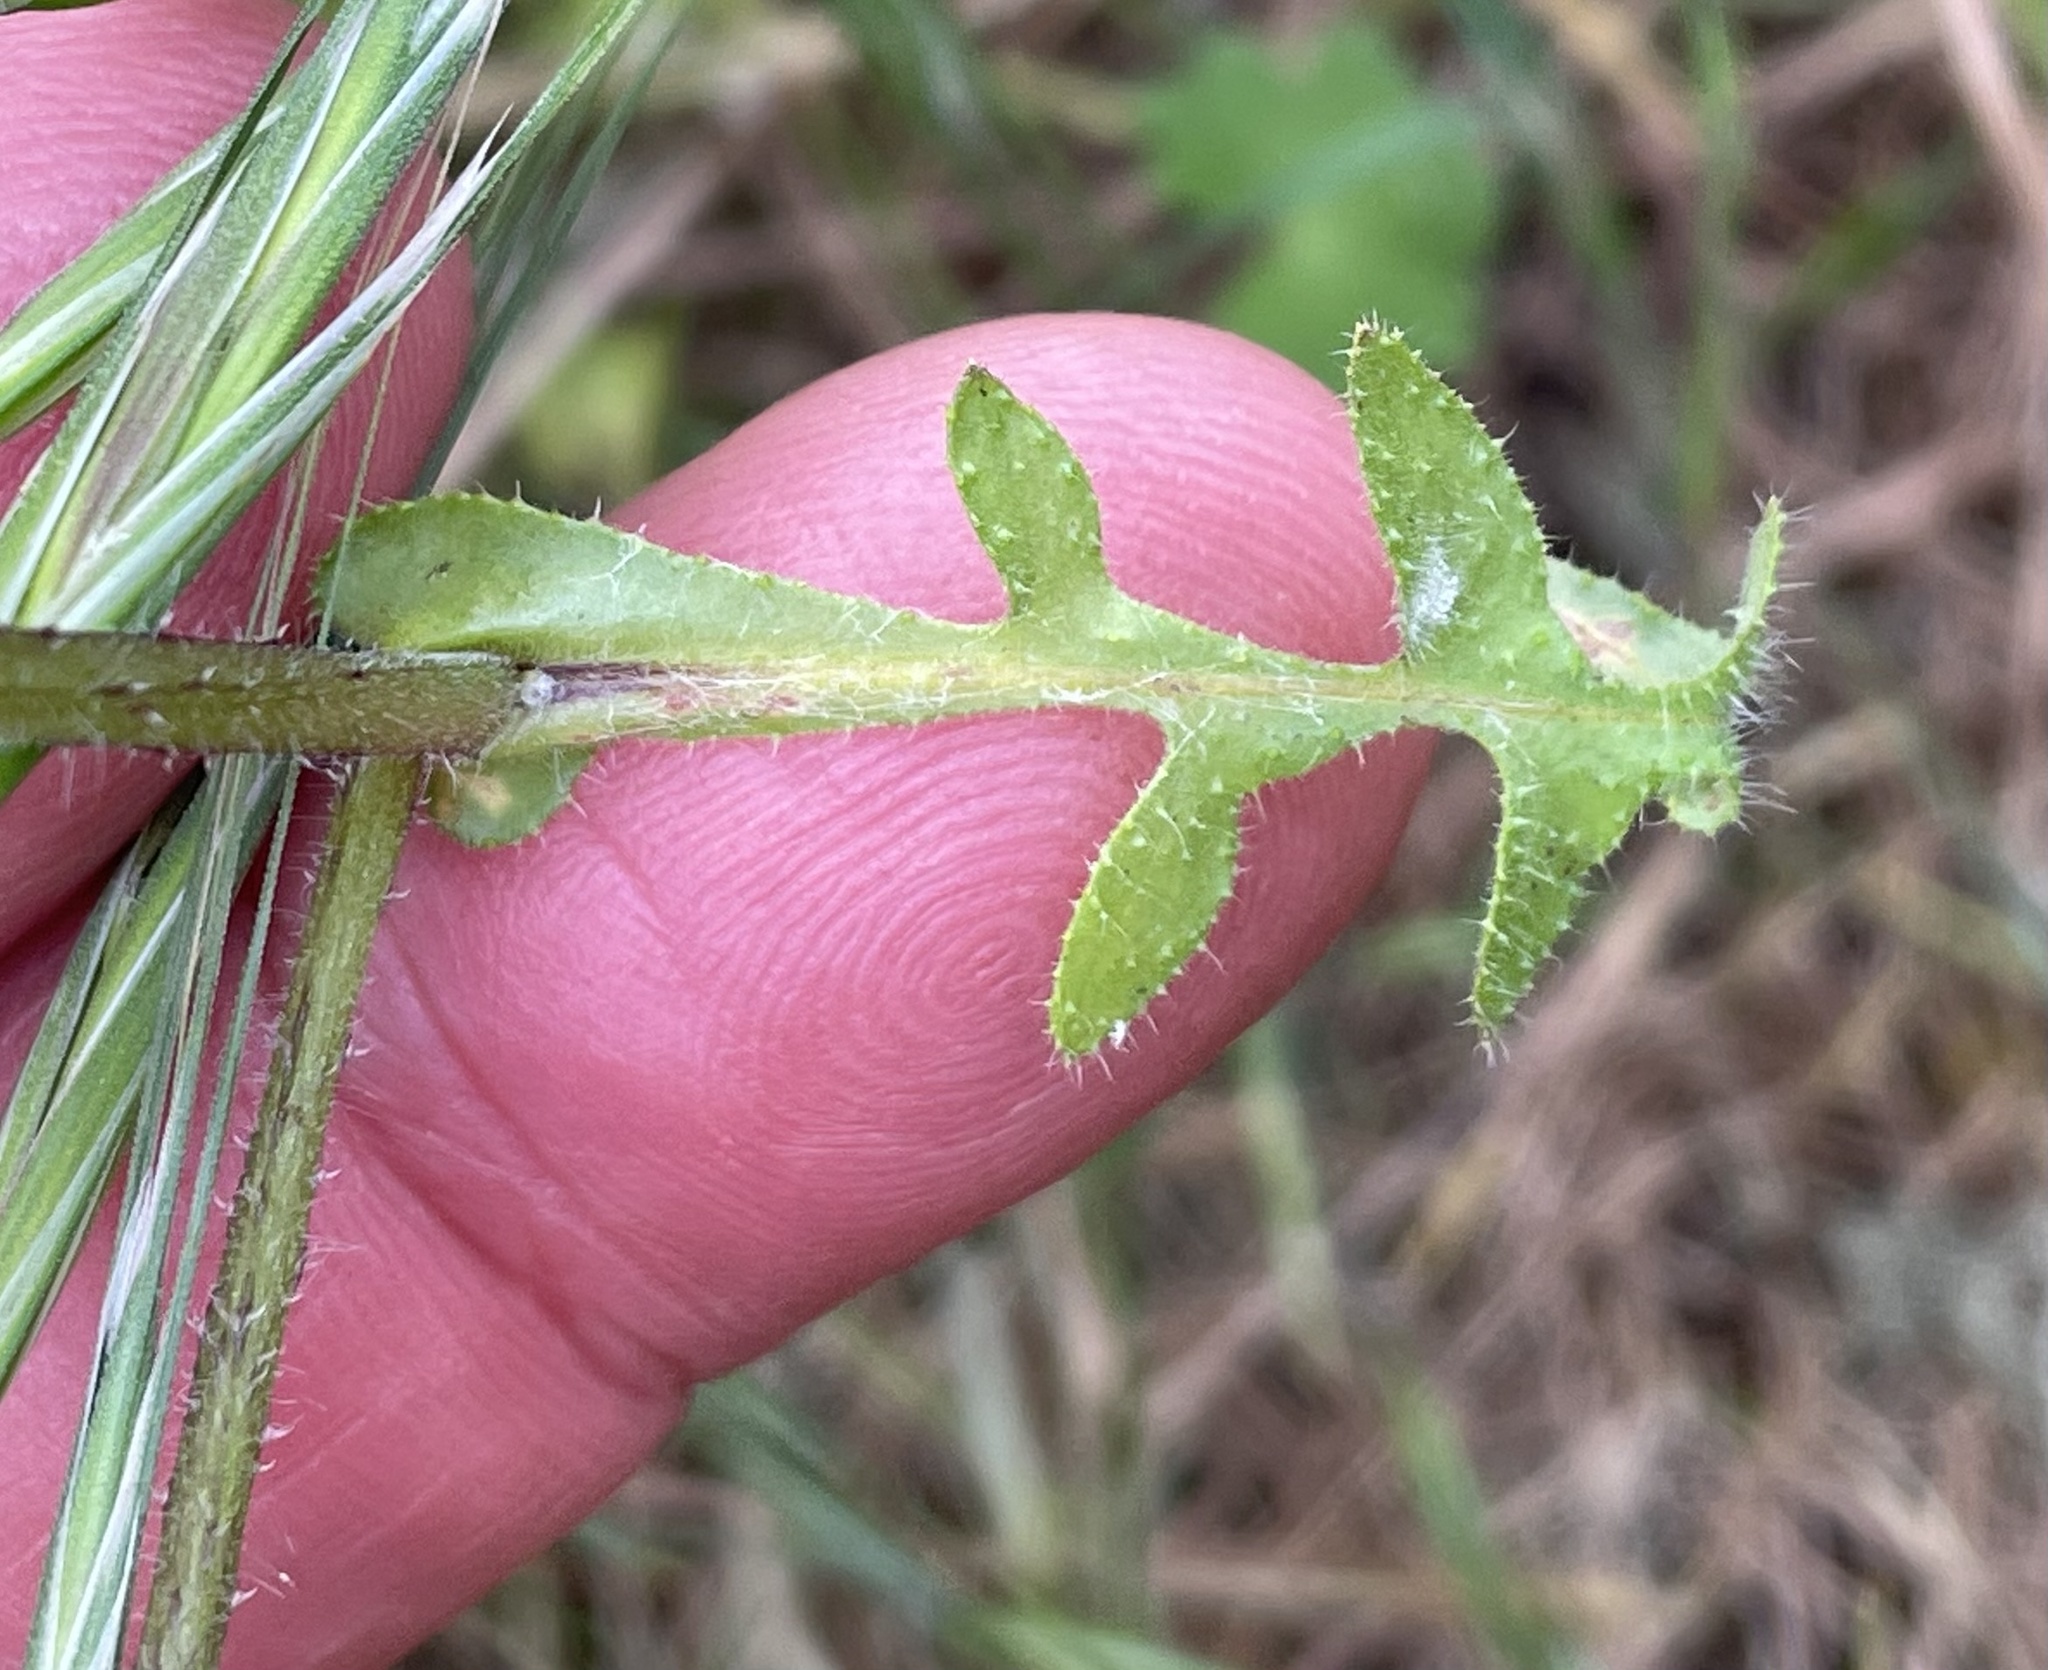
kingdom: Plantae
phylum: Tracheophyta
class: Magnoliopsida
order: Boraginales
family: Hydrophyllaceae
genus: Pholistoma
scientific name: Pholistoma auritum
